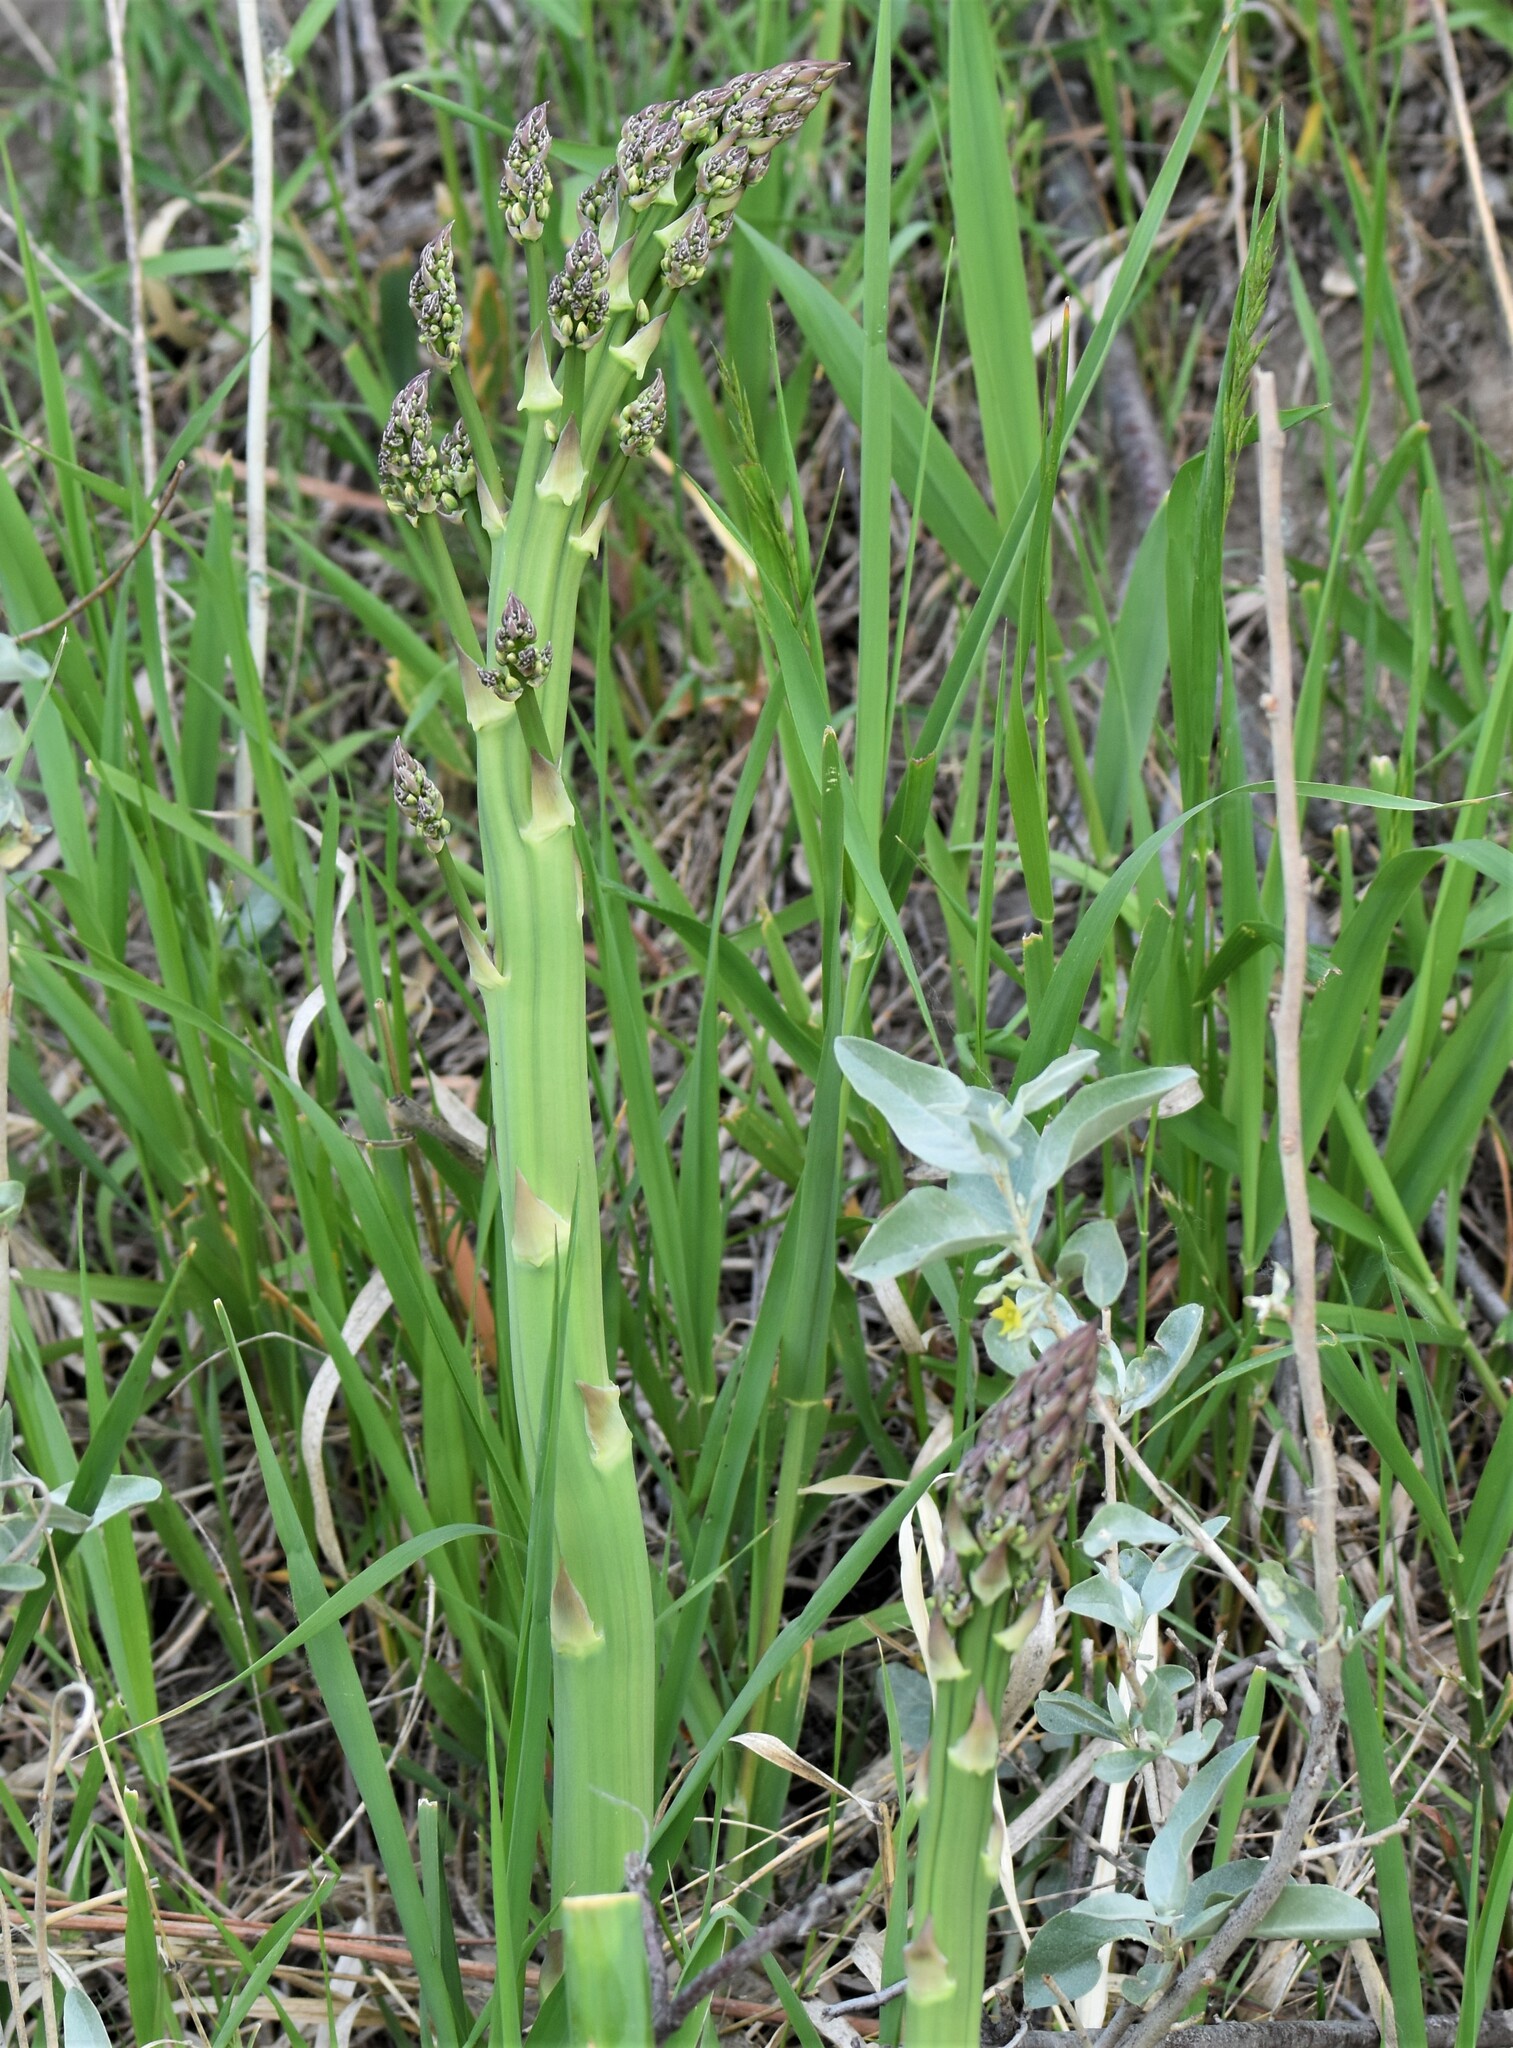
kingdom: Plantae
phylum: Tracheophyta
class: Liliopsida
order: Asparagales
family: Asparagaceae
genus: Asparagus
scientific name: Asparagus officinalis
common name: Garden asparagus
